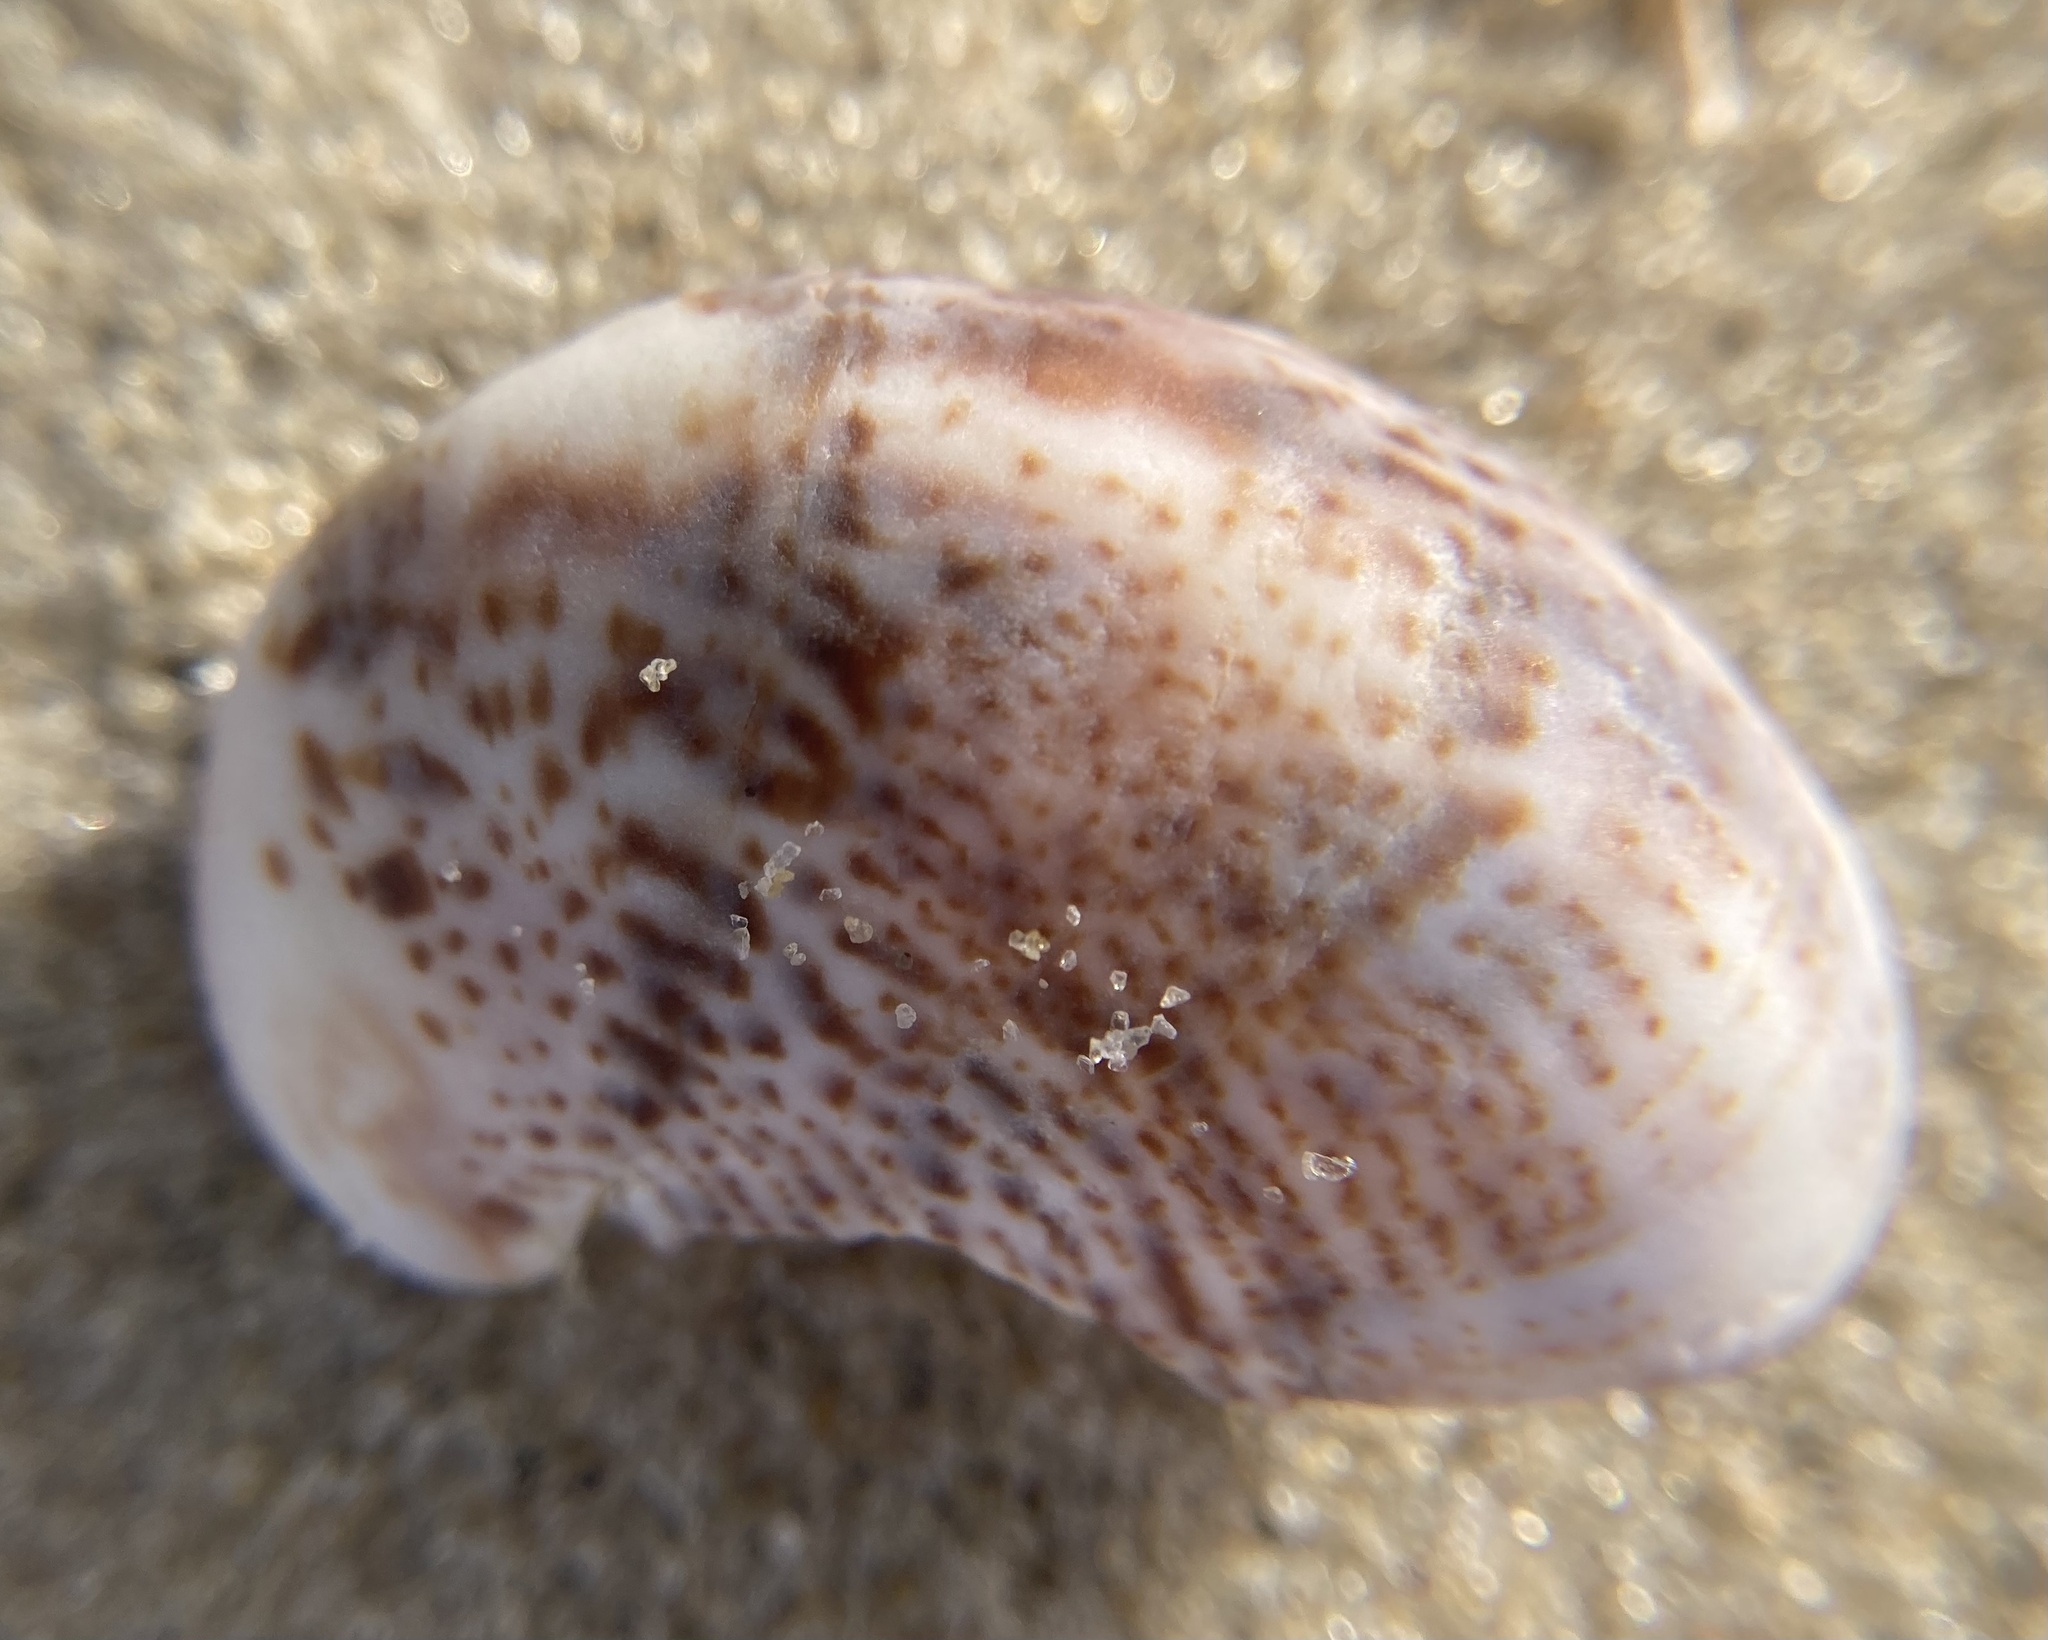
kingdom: Animalia
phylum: Mollusca
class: Gastropoda
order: Littorinimorpha
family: Calyptraeidae
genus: Crepidula
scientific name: Crepidula fornicata
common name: Slipper limpet
